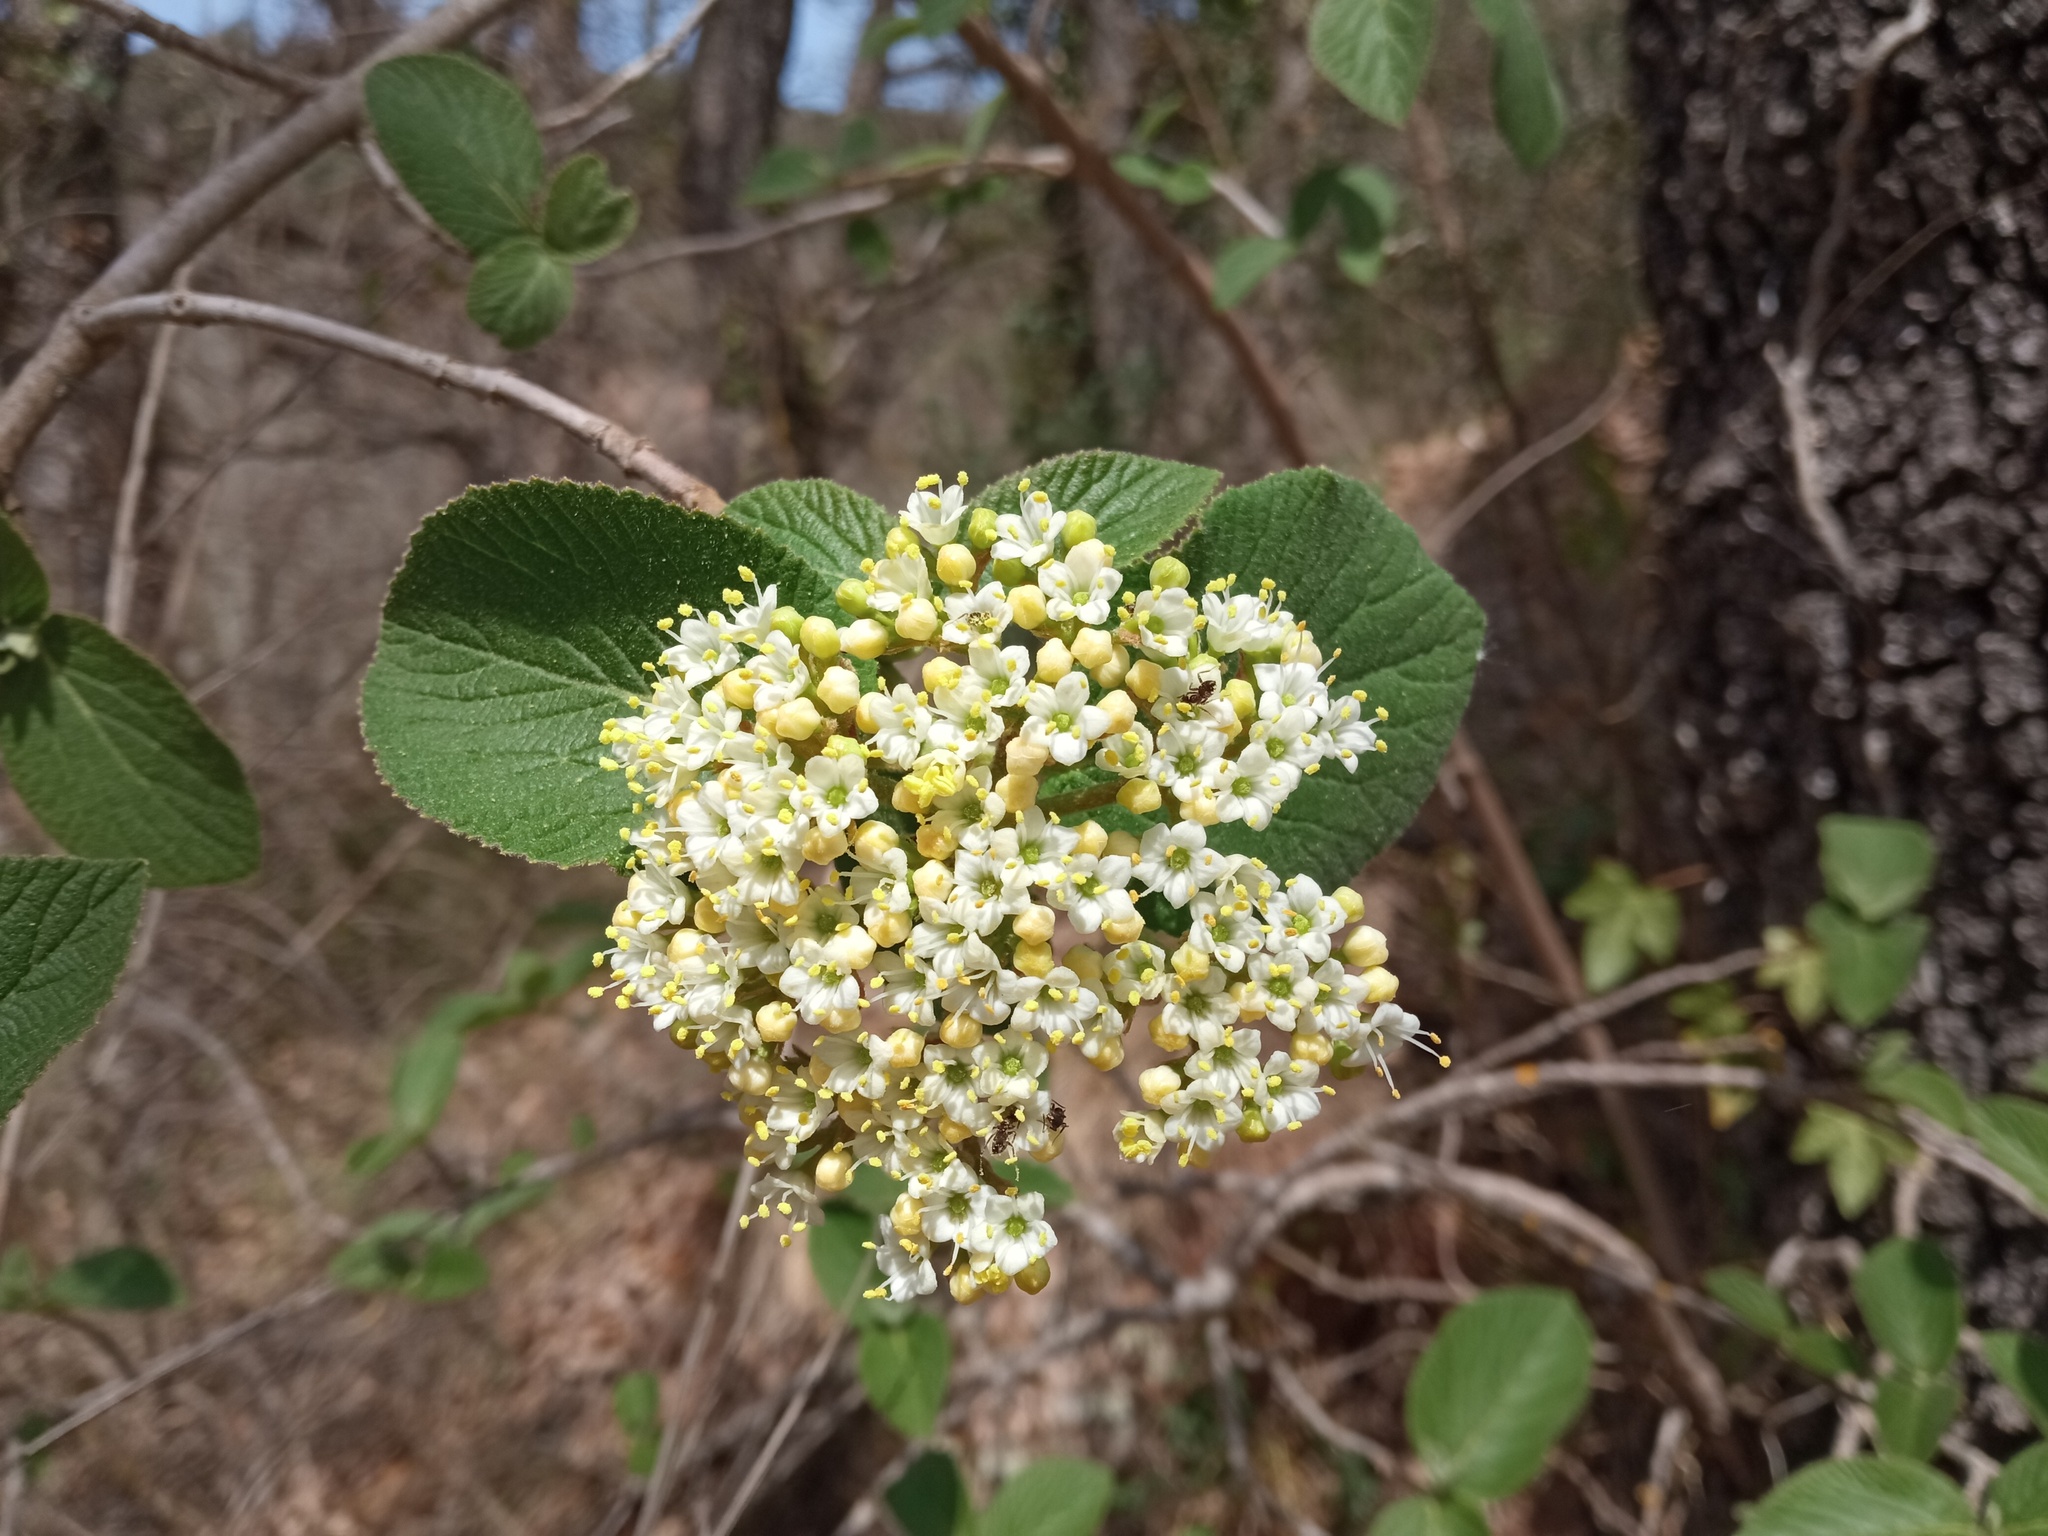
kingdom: Plantae
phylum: Tracheophyta
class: Magnoliopsida
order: Dipsacales
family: Viburnaceae
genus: Viburnum
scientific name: Viburnum lantana
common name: Wayfaring tree
